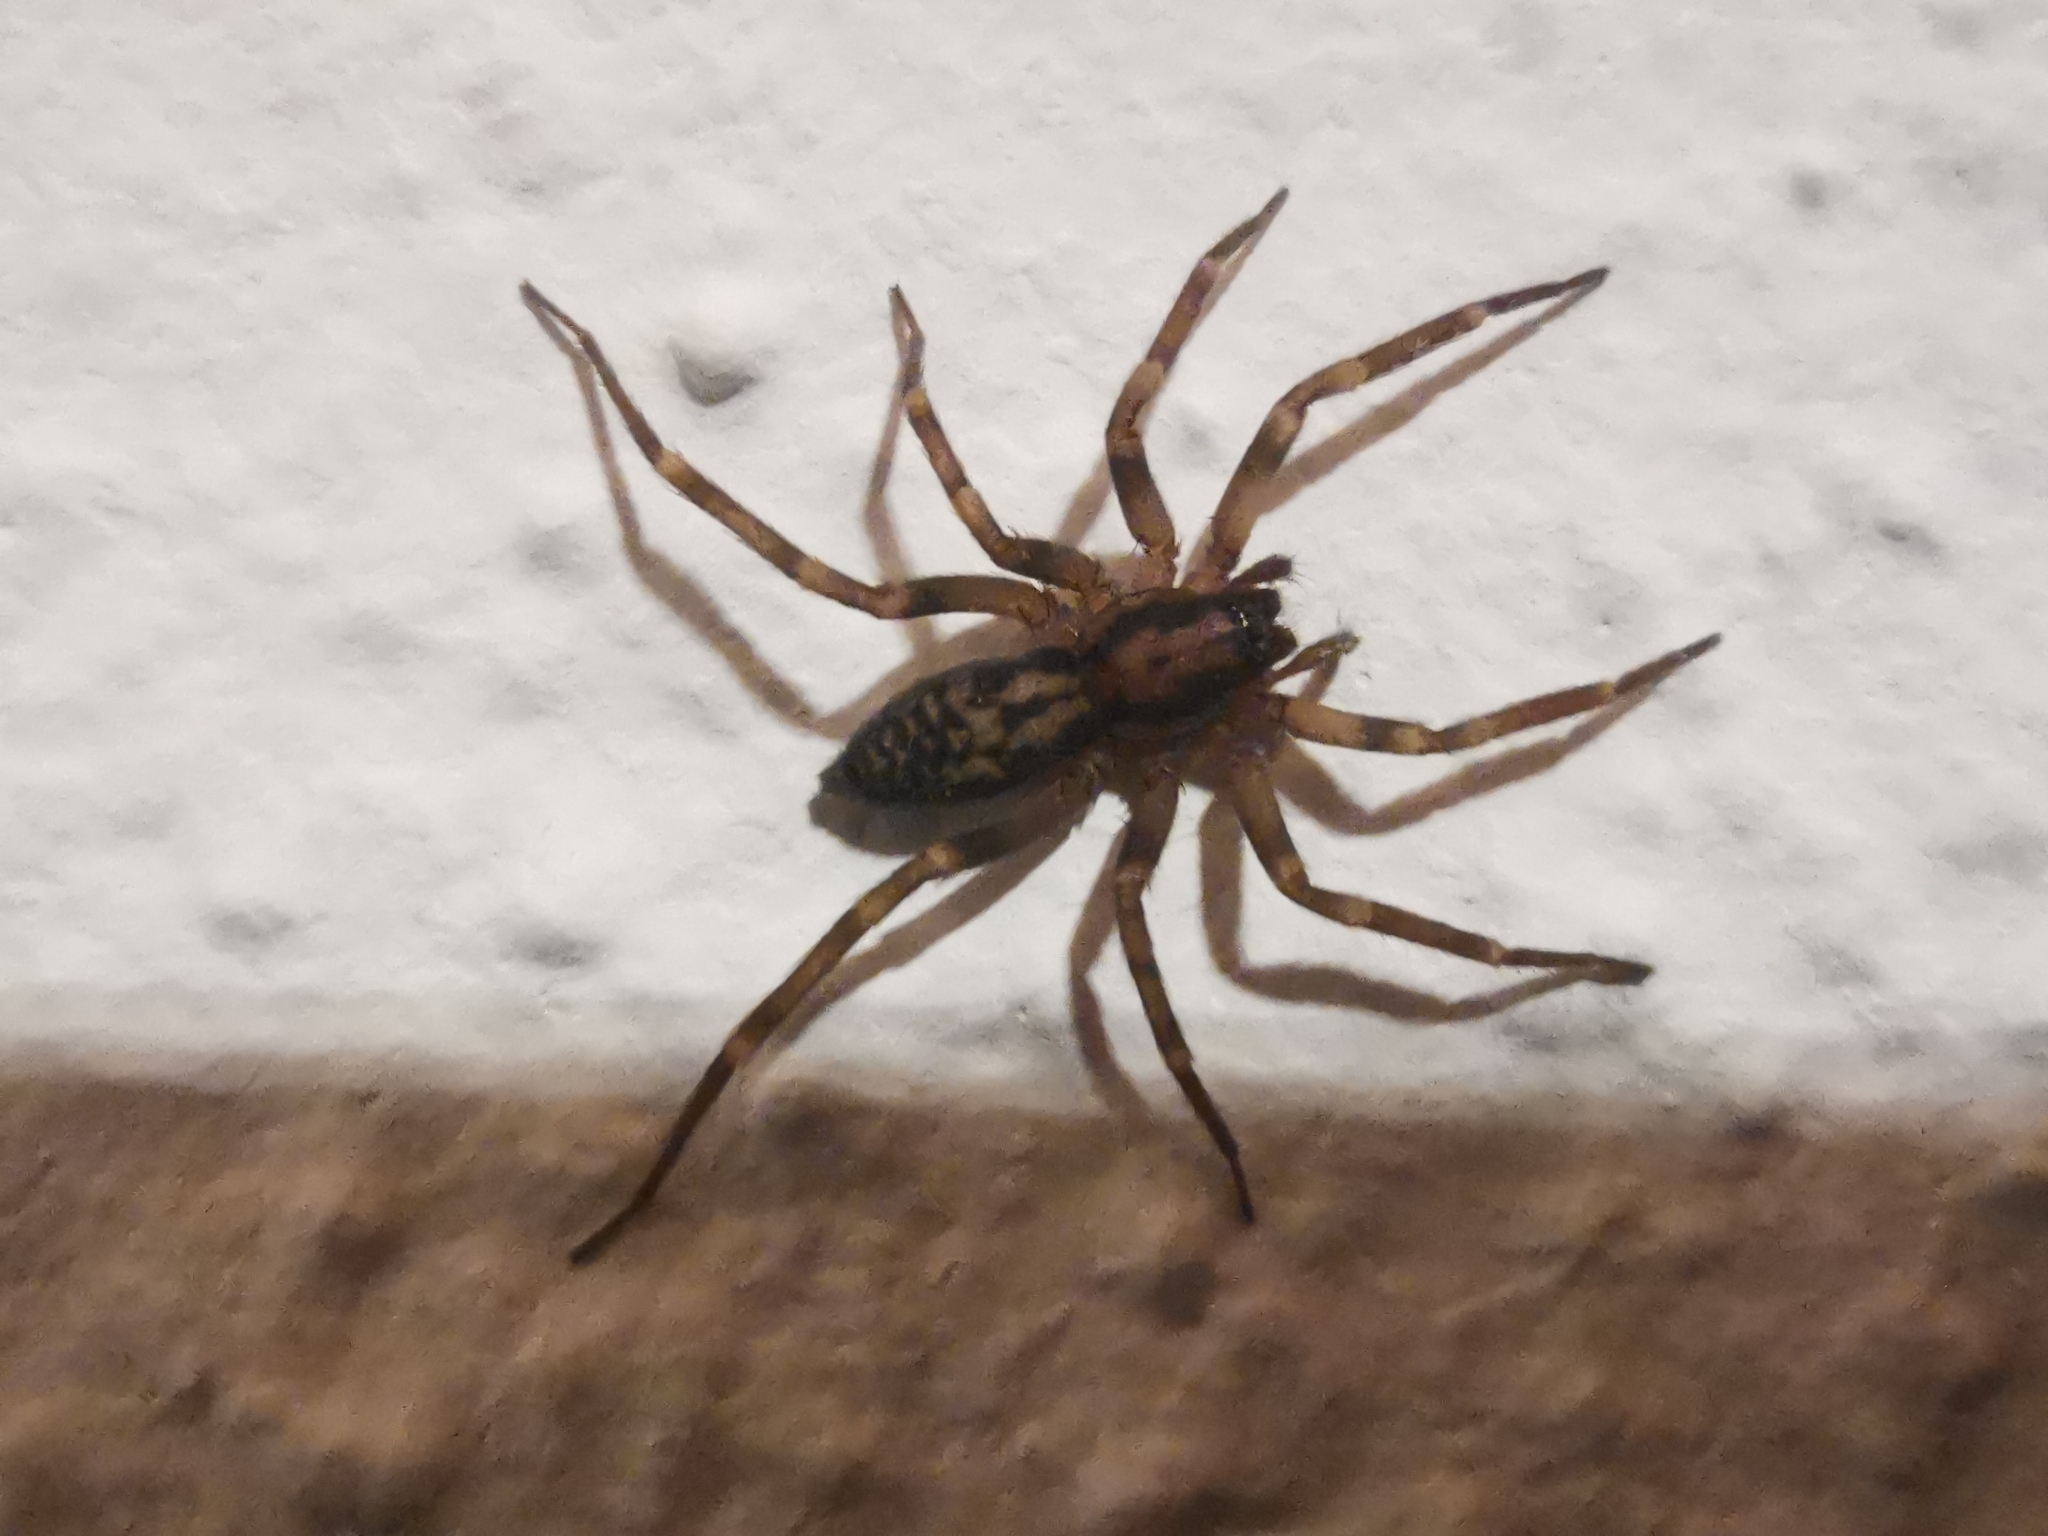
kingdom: Animalia
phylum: Arthropoda
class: Arachnida
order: Araneae
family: Liocranidae
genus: Liocranum
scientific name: Liocranum rupicola
